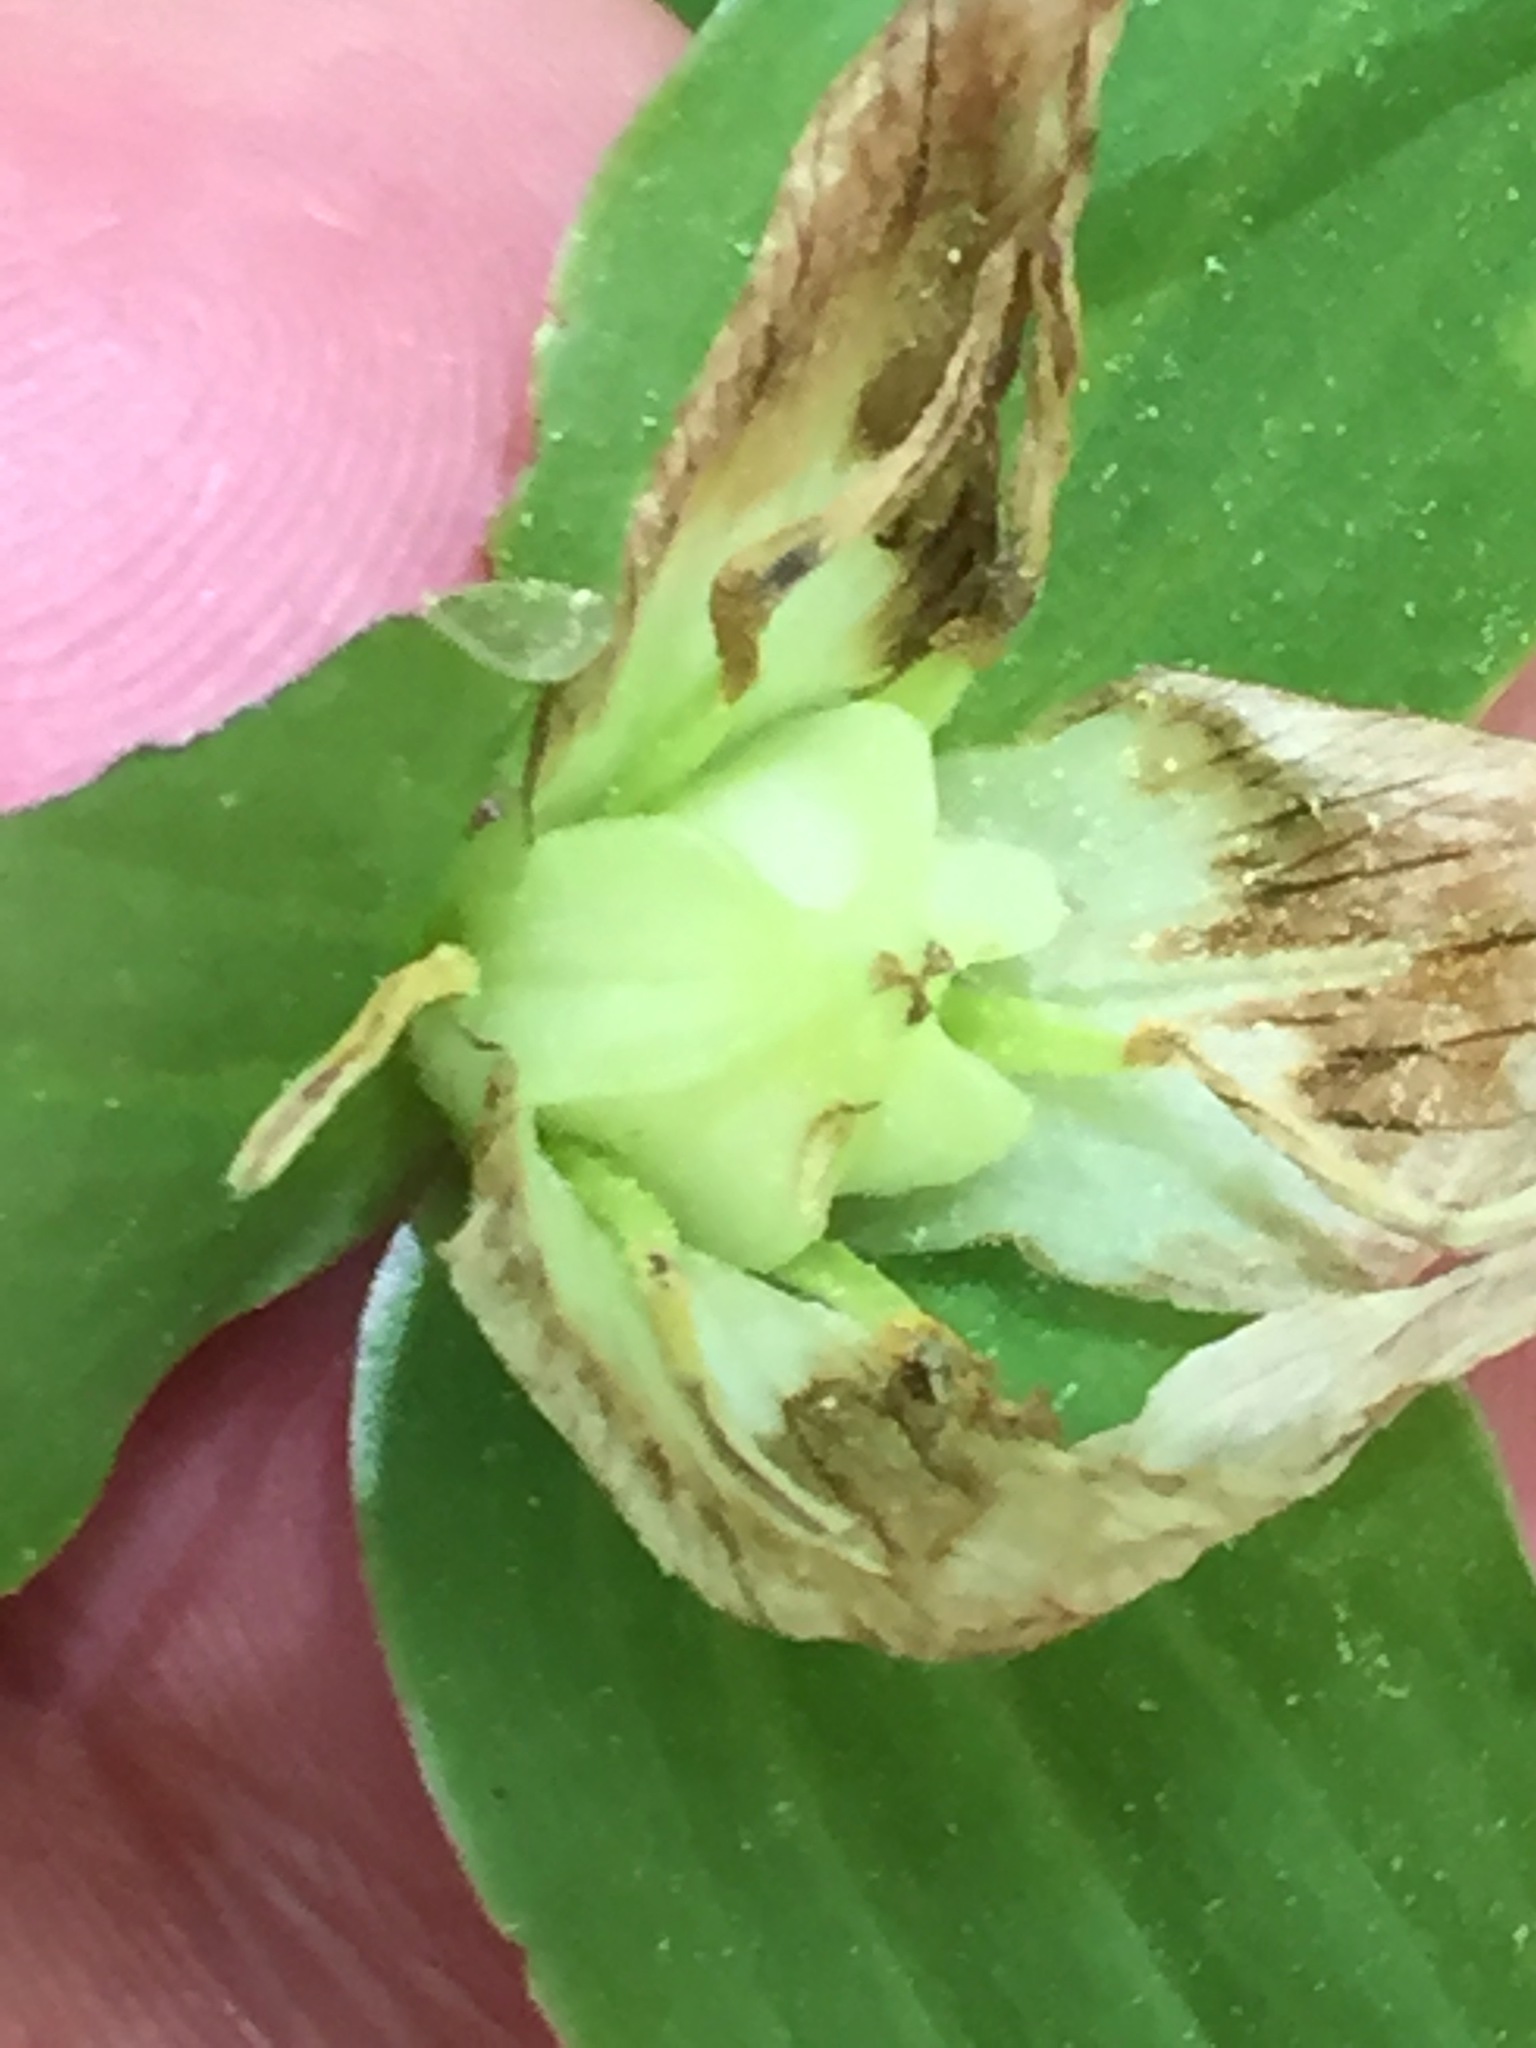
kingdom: Plantae
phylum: Tracheophyta
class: Liliopsida
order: Liliales
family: Melanthiaceae
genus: Trillium
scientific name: Trillium grandiflorum
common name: Great white trillium
